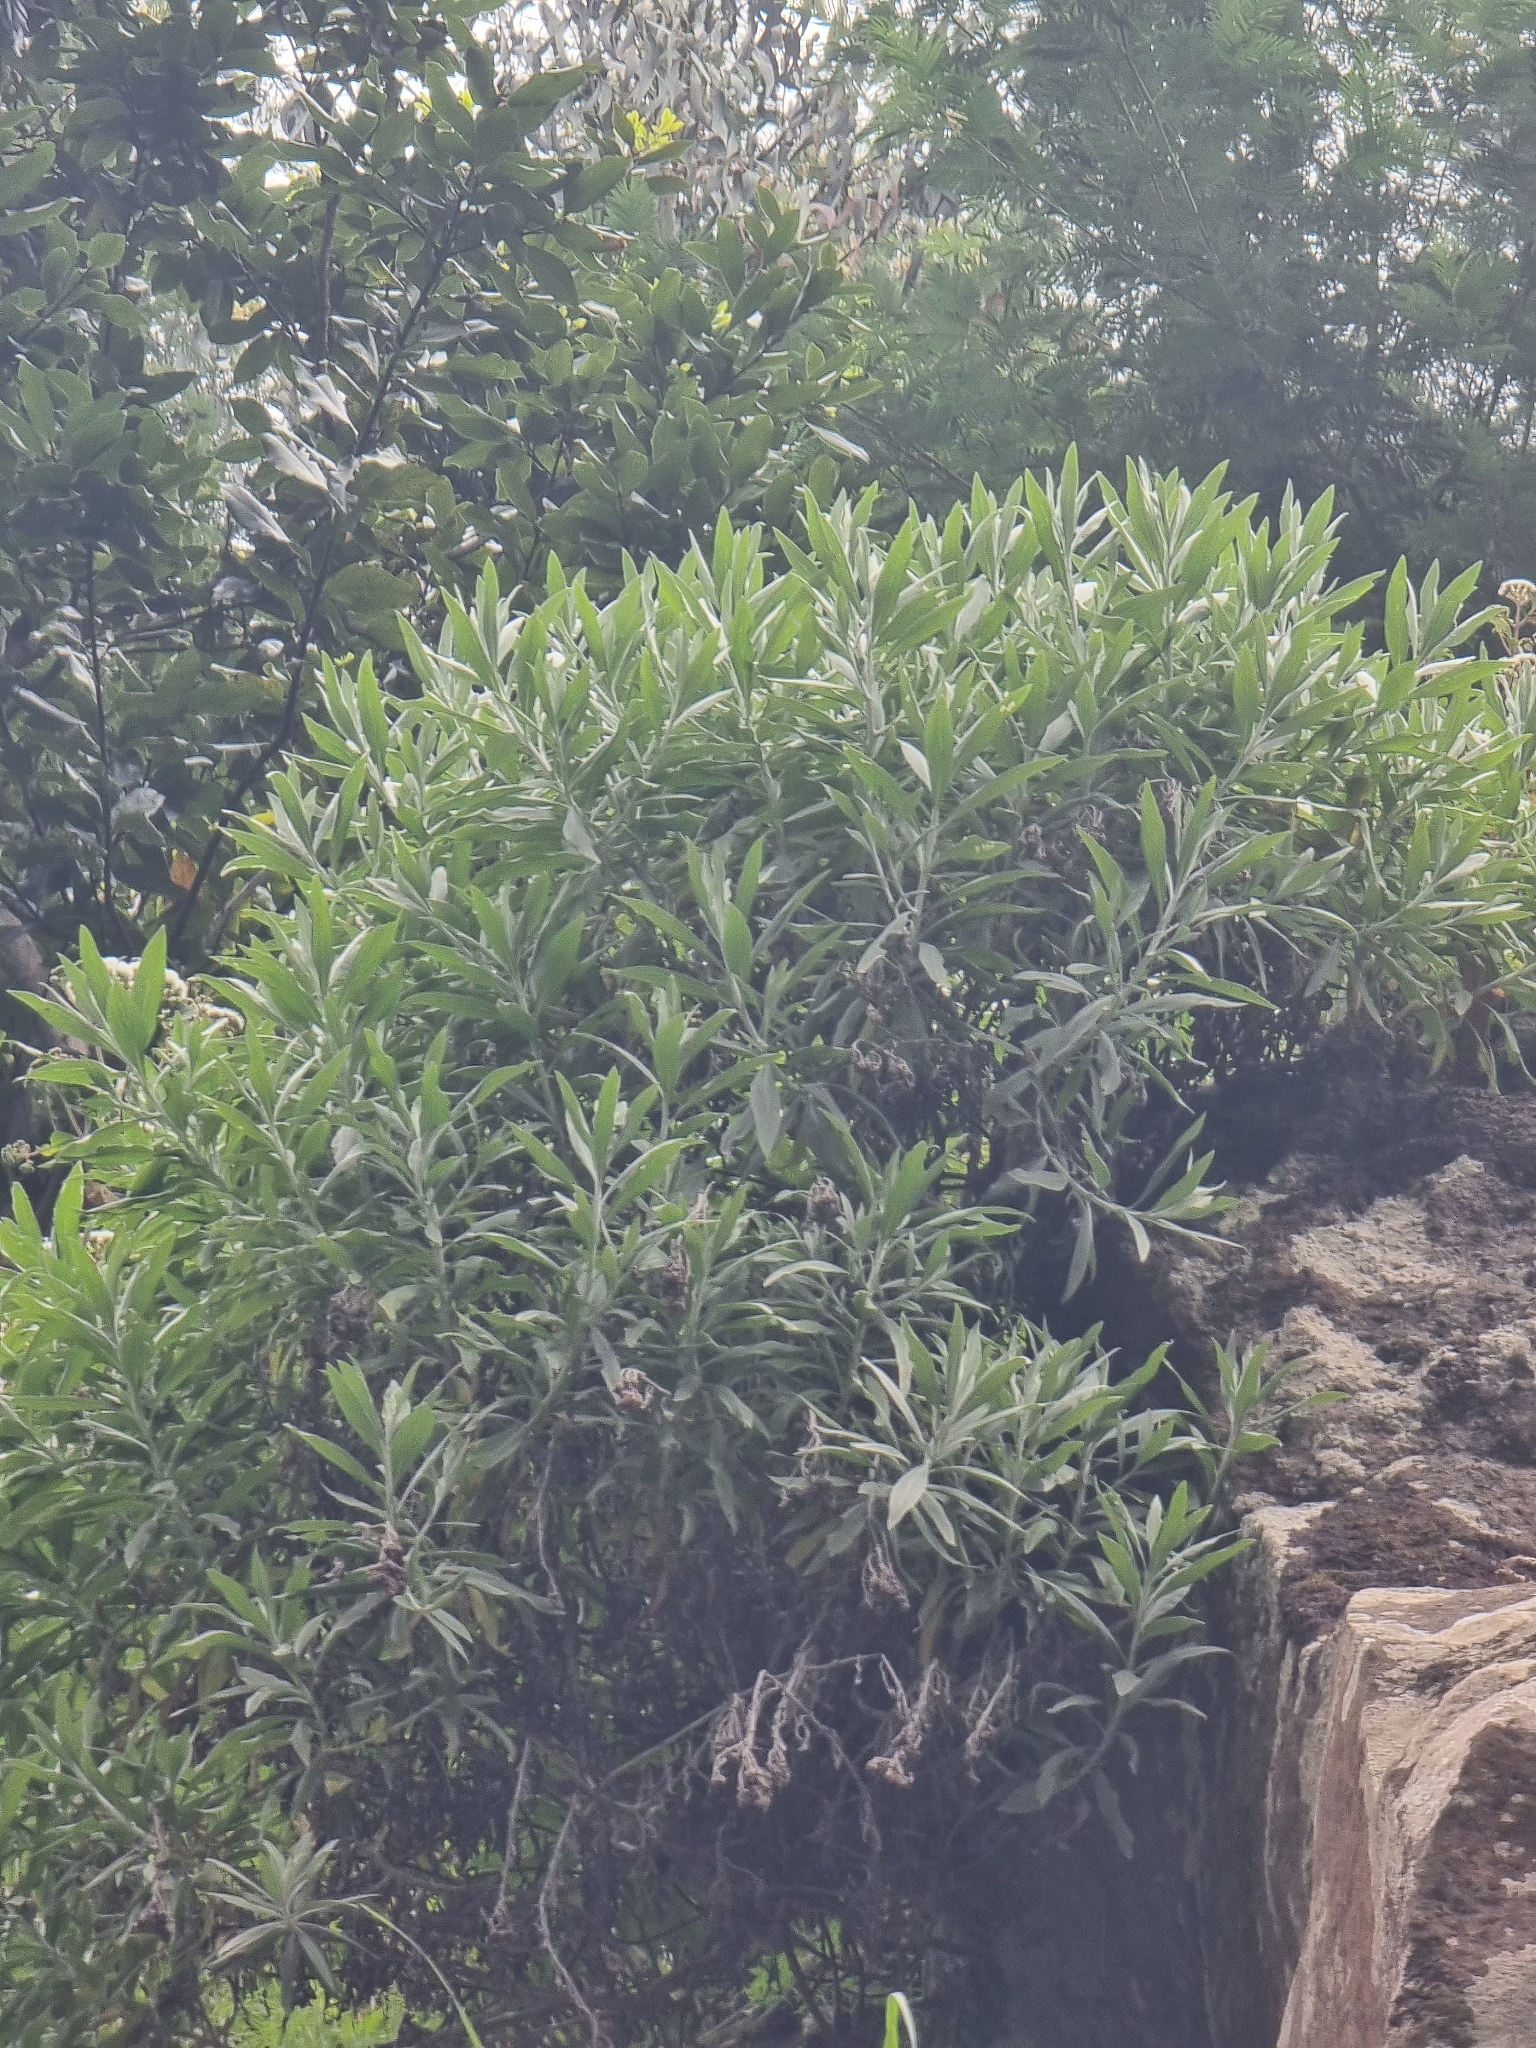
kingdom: Plantae
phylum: Tracheophyta
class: Magnoliopsida
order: Asterales
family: Asteraceae
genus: Helichrysum
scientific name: Helichrysum melaleucum
